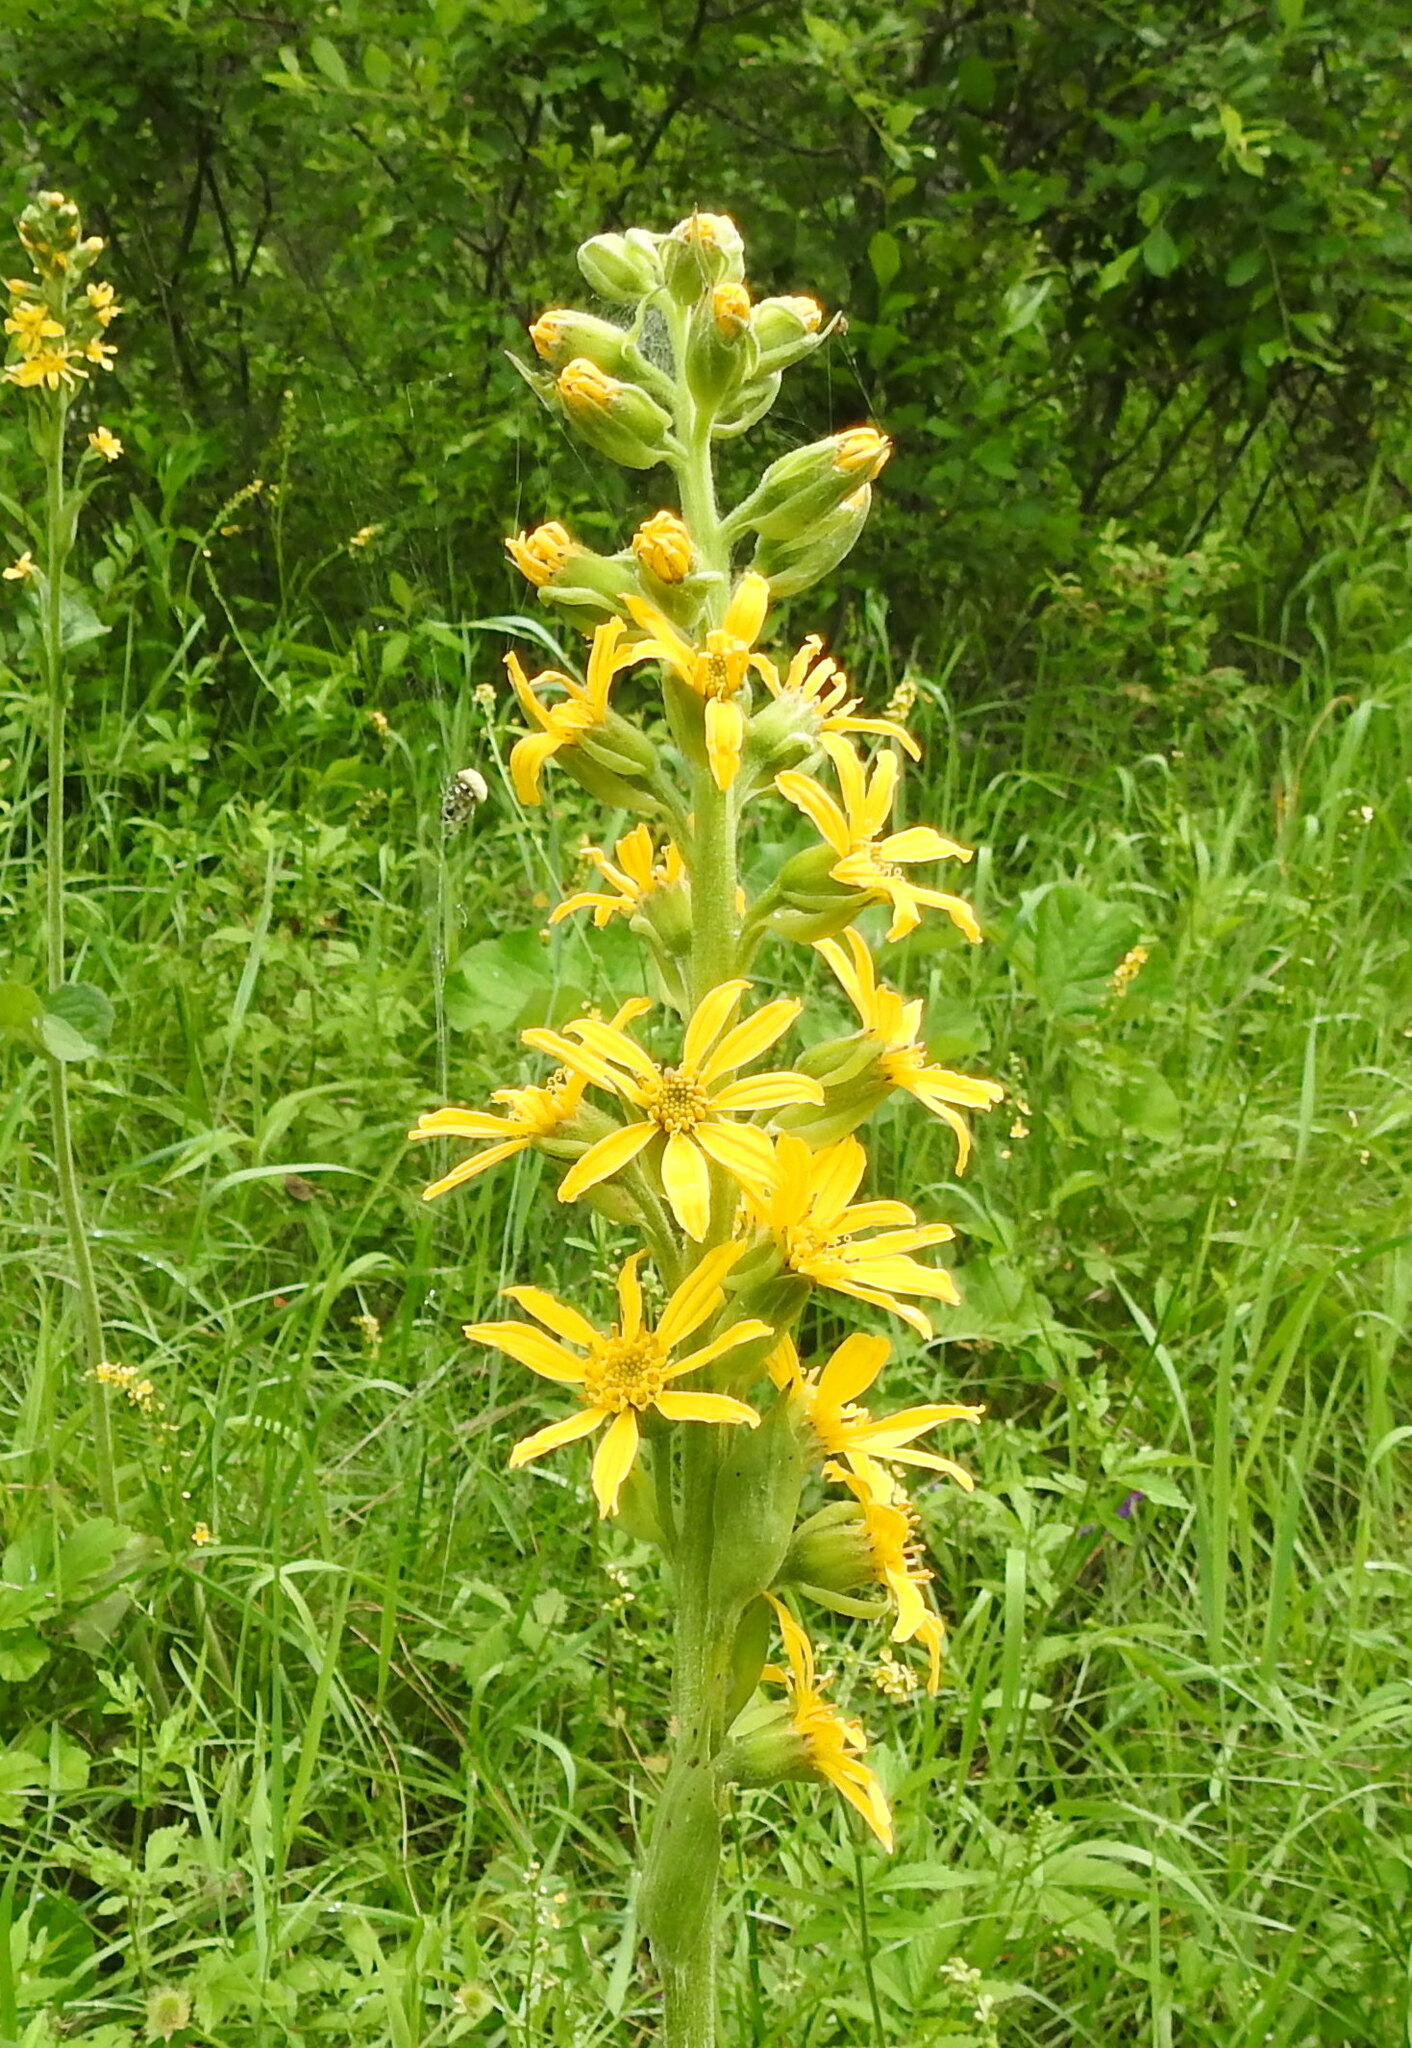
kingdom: Plantae
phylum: Tracheophyta
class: Magnoliopsida
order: Asterales
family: Asteraceae
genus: Ligularia
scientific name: Ligularia fischeri
